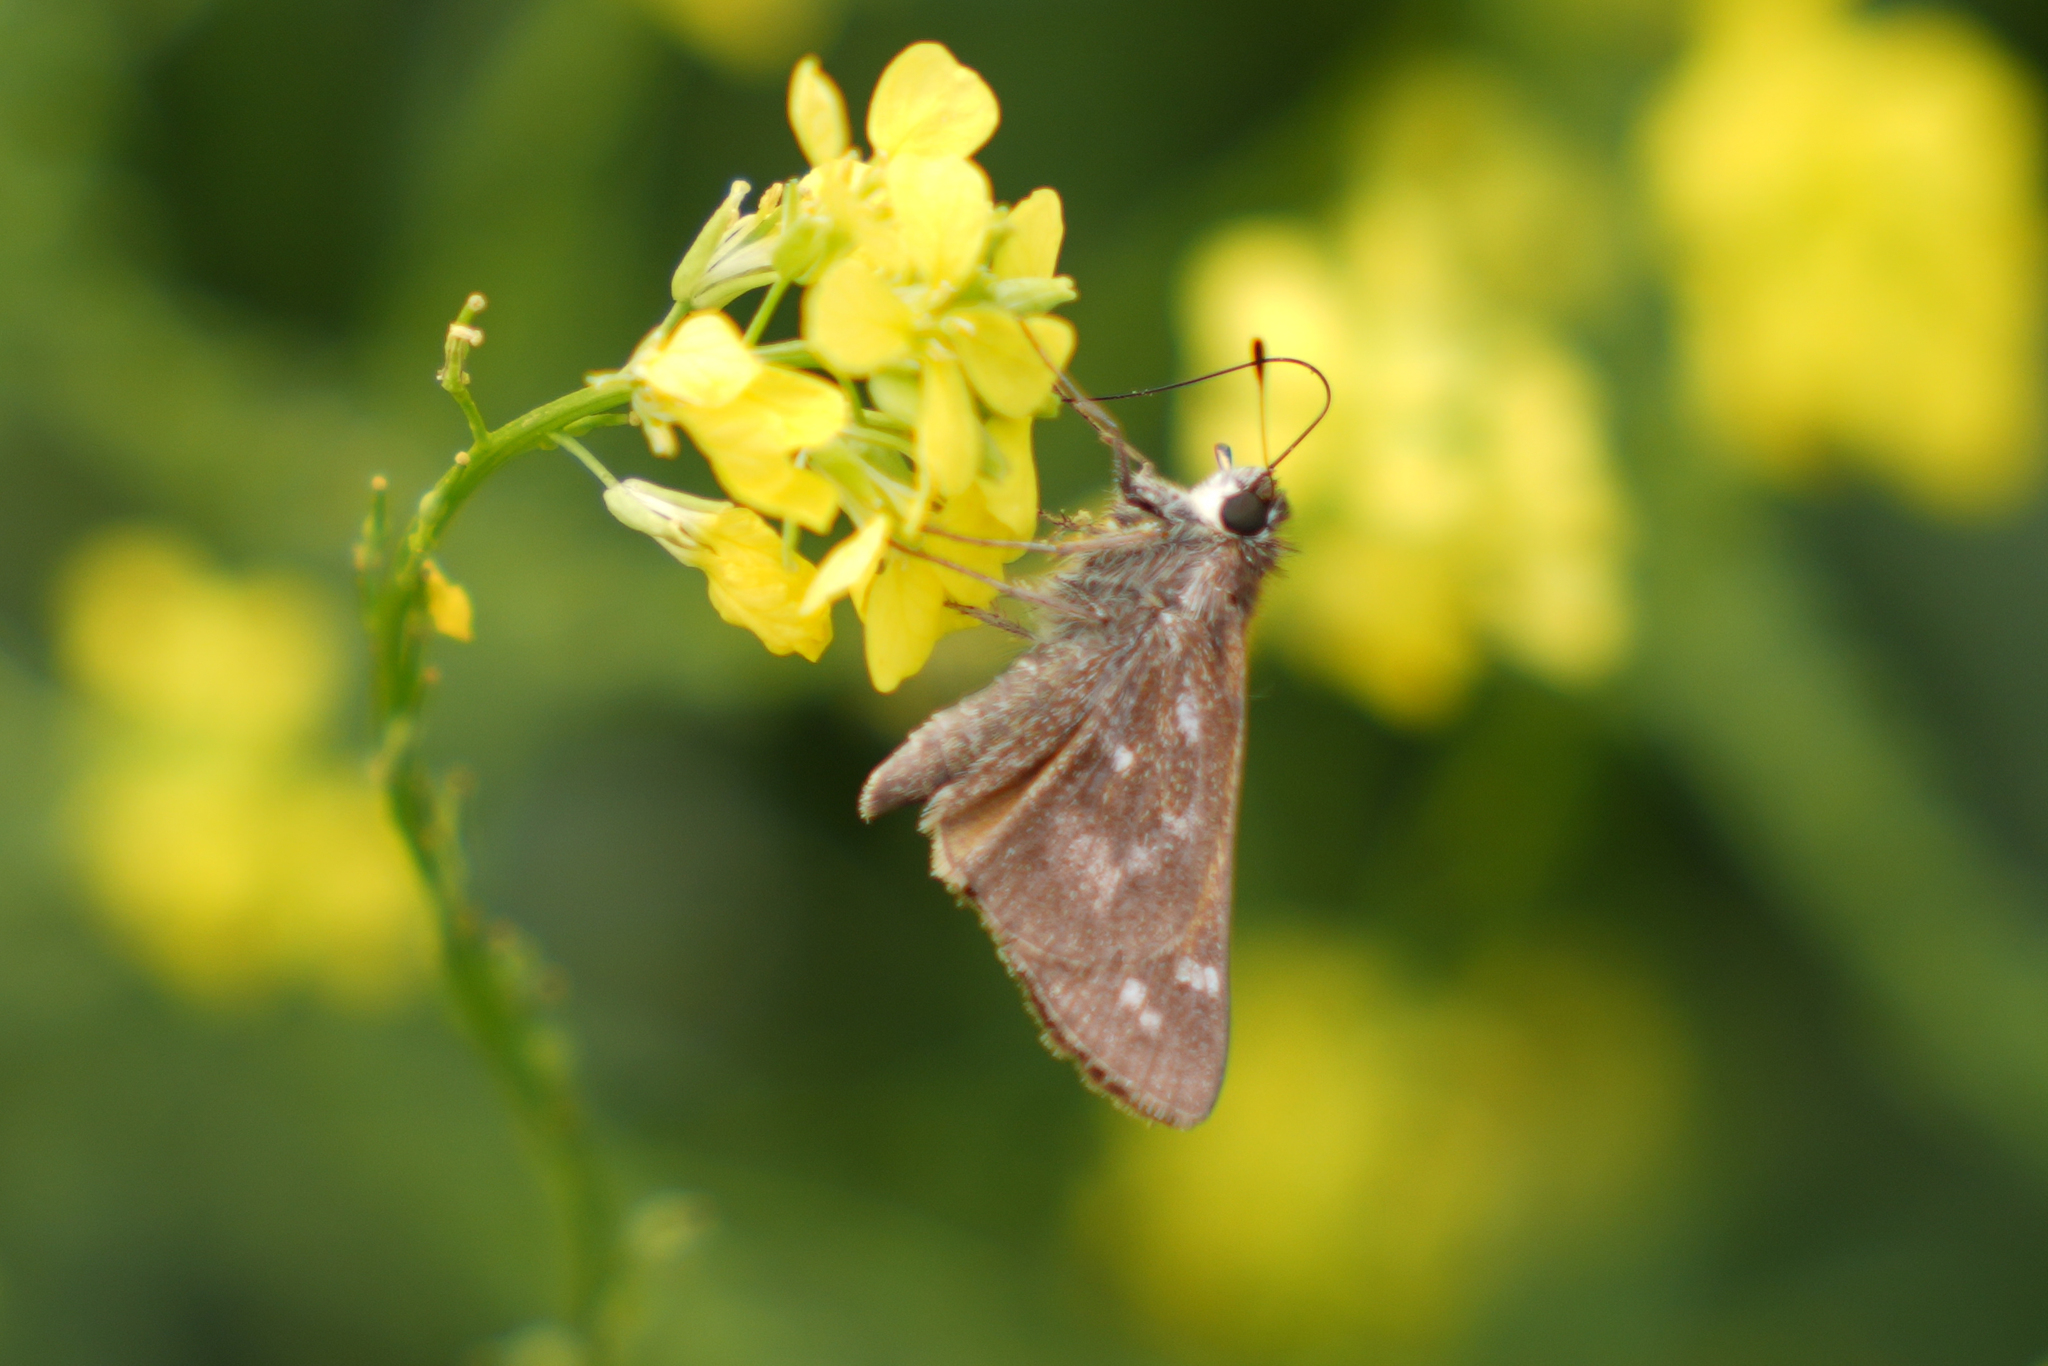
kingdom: Animalia
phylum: Arthropoda
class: Insecta
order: Lepidoptera
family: Hesperiidae
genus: Atalopedes
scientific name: Atalopedes
